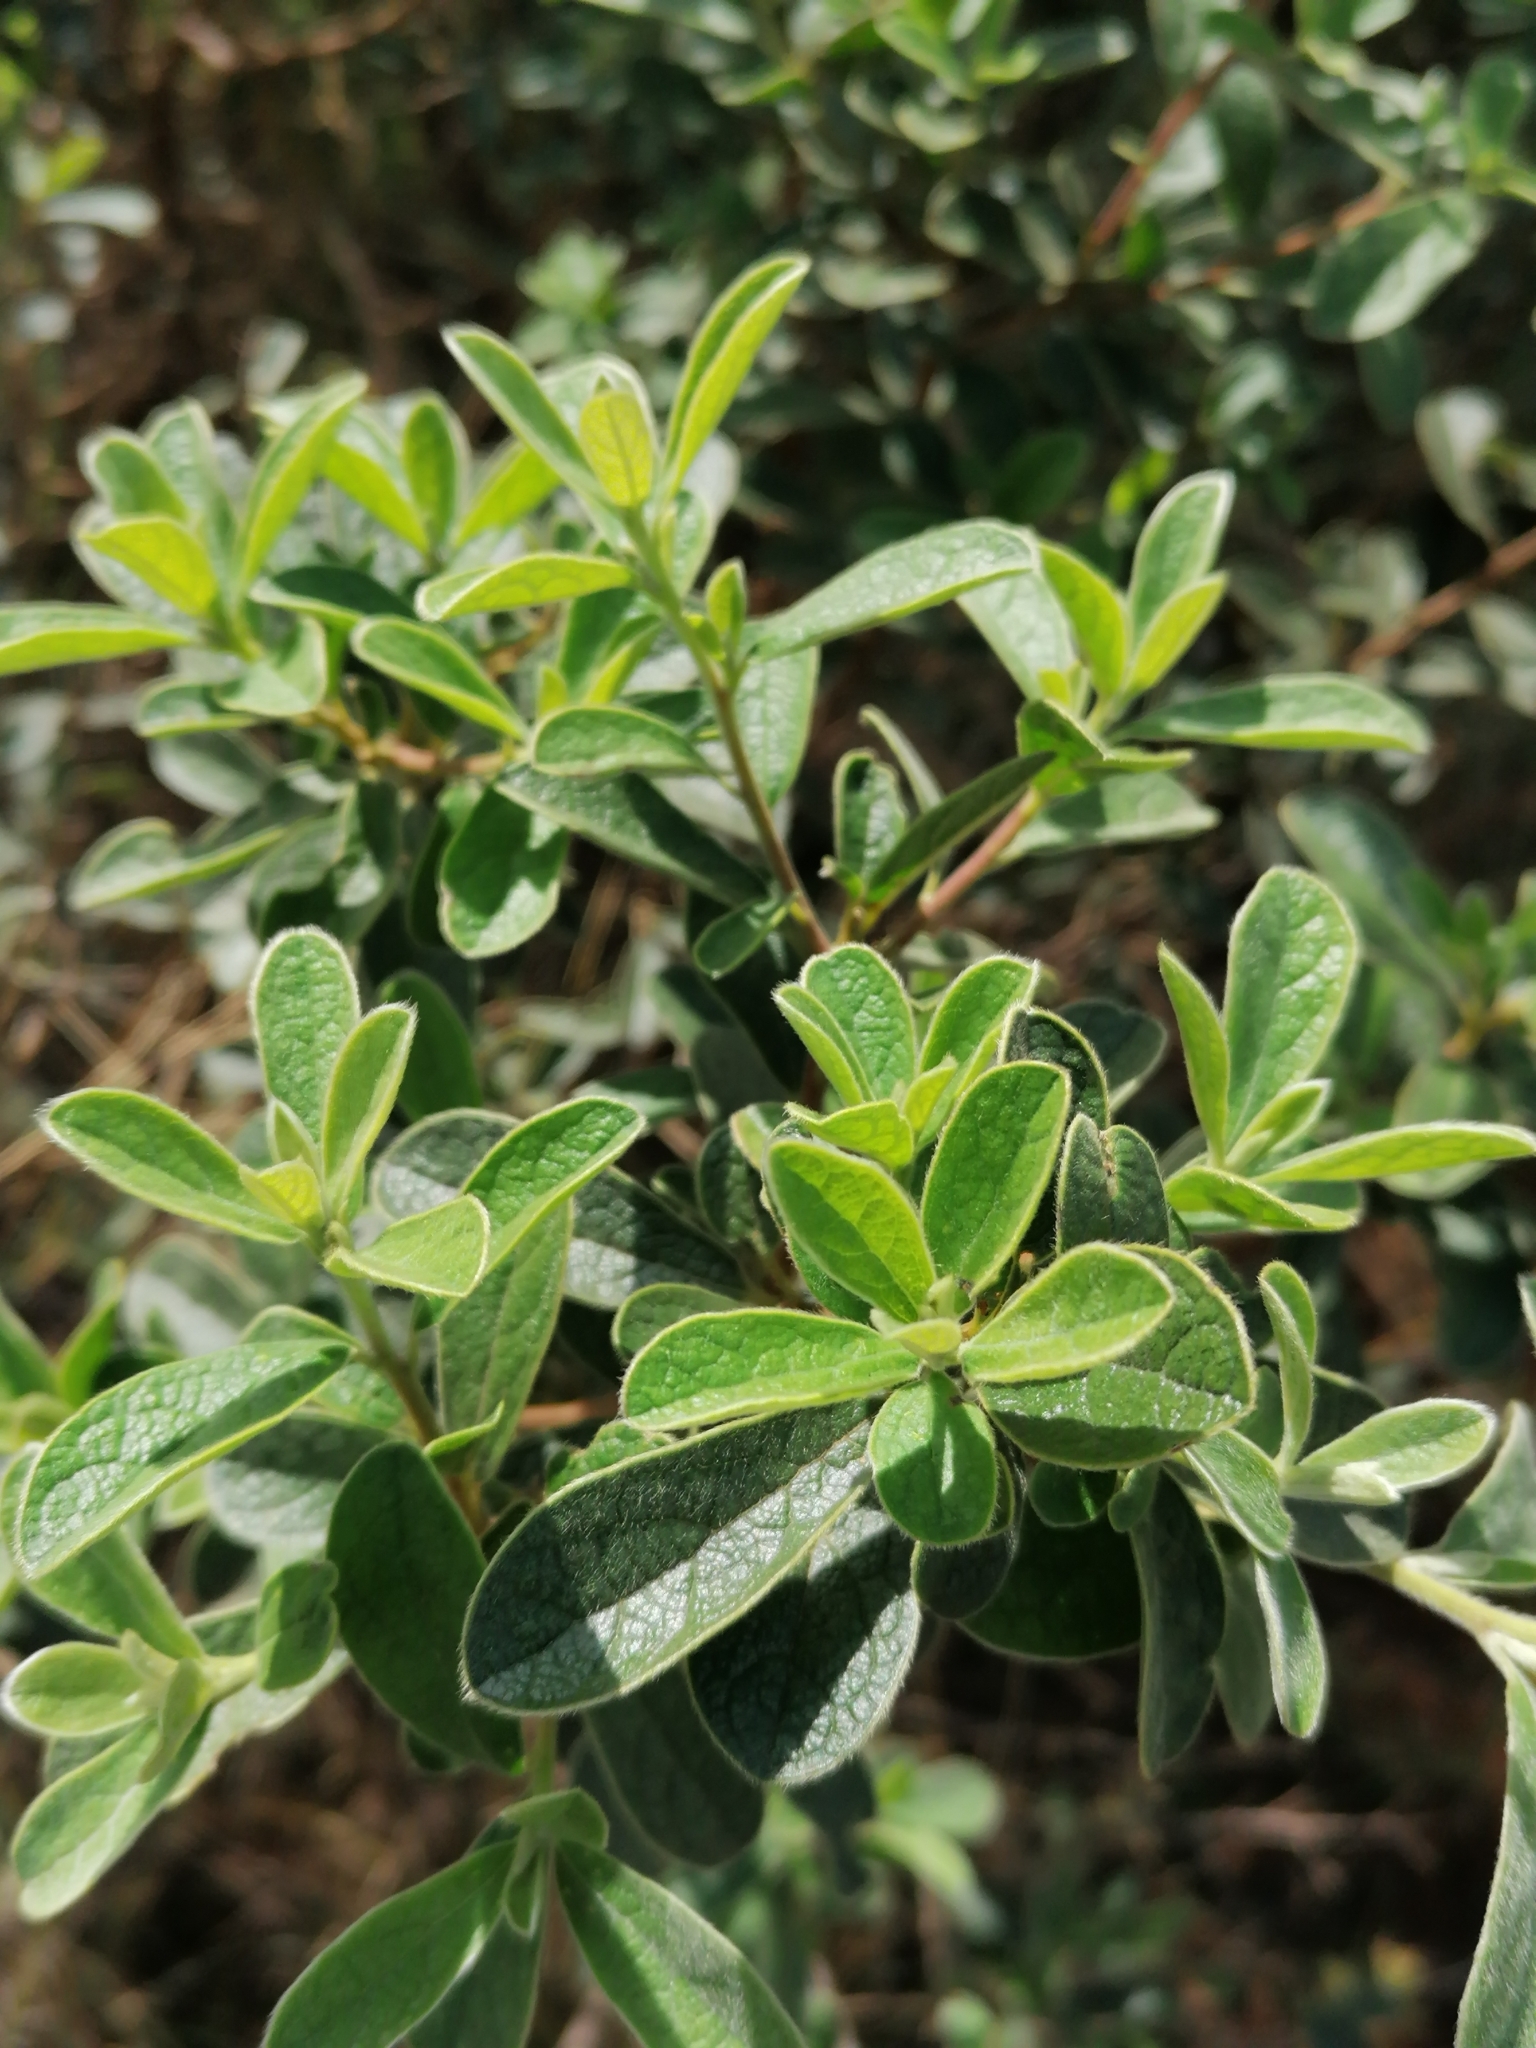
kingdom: Plantae
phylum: Tracheophyta
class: Magnoliopsida
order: Ericales
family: Ebenaceae
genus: Diospyros
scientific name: Diospyros lycioides
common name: Red star apple
